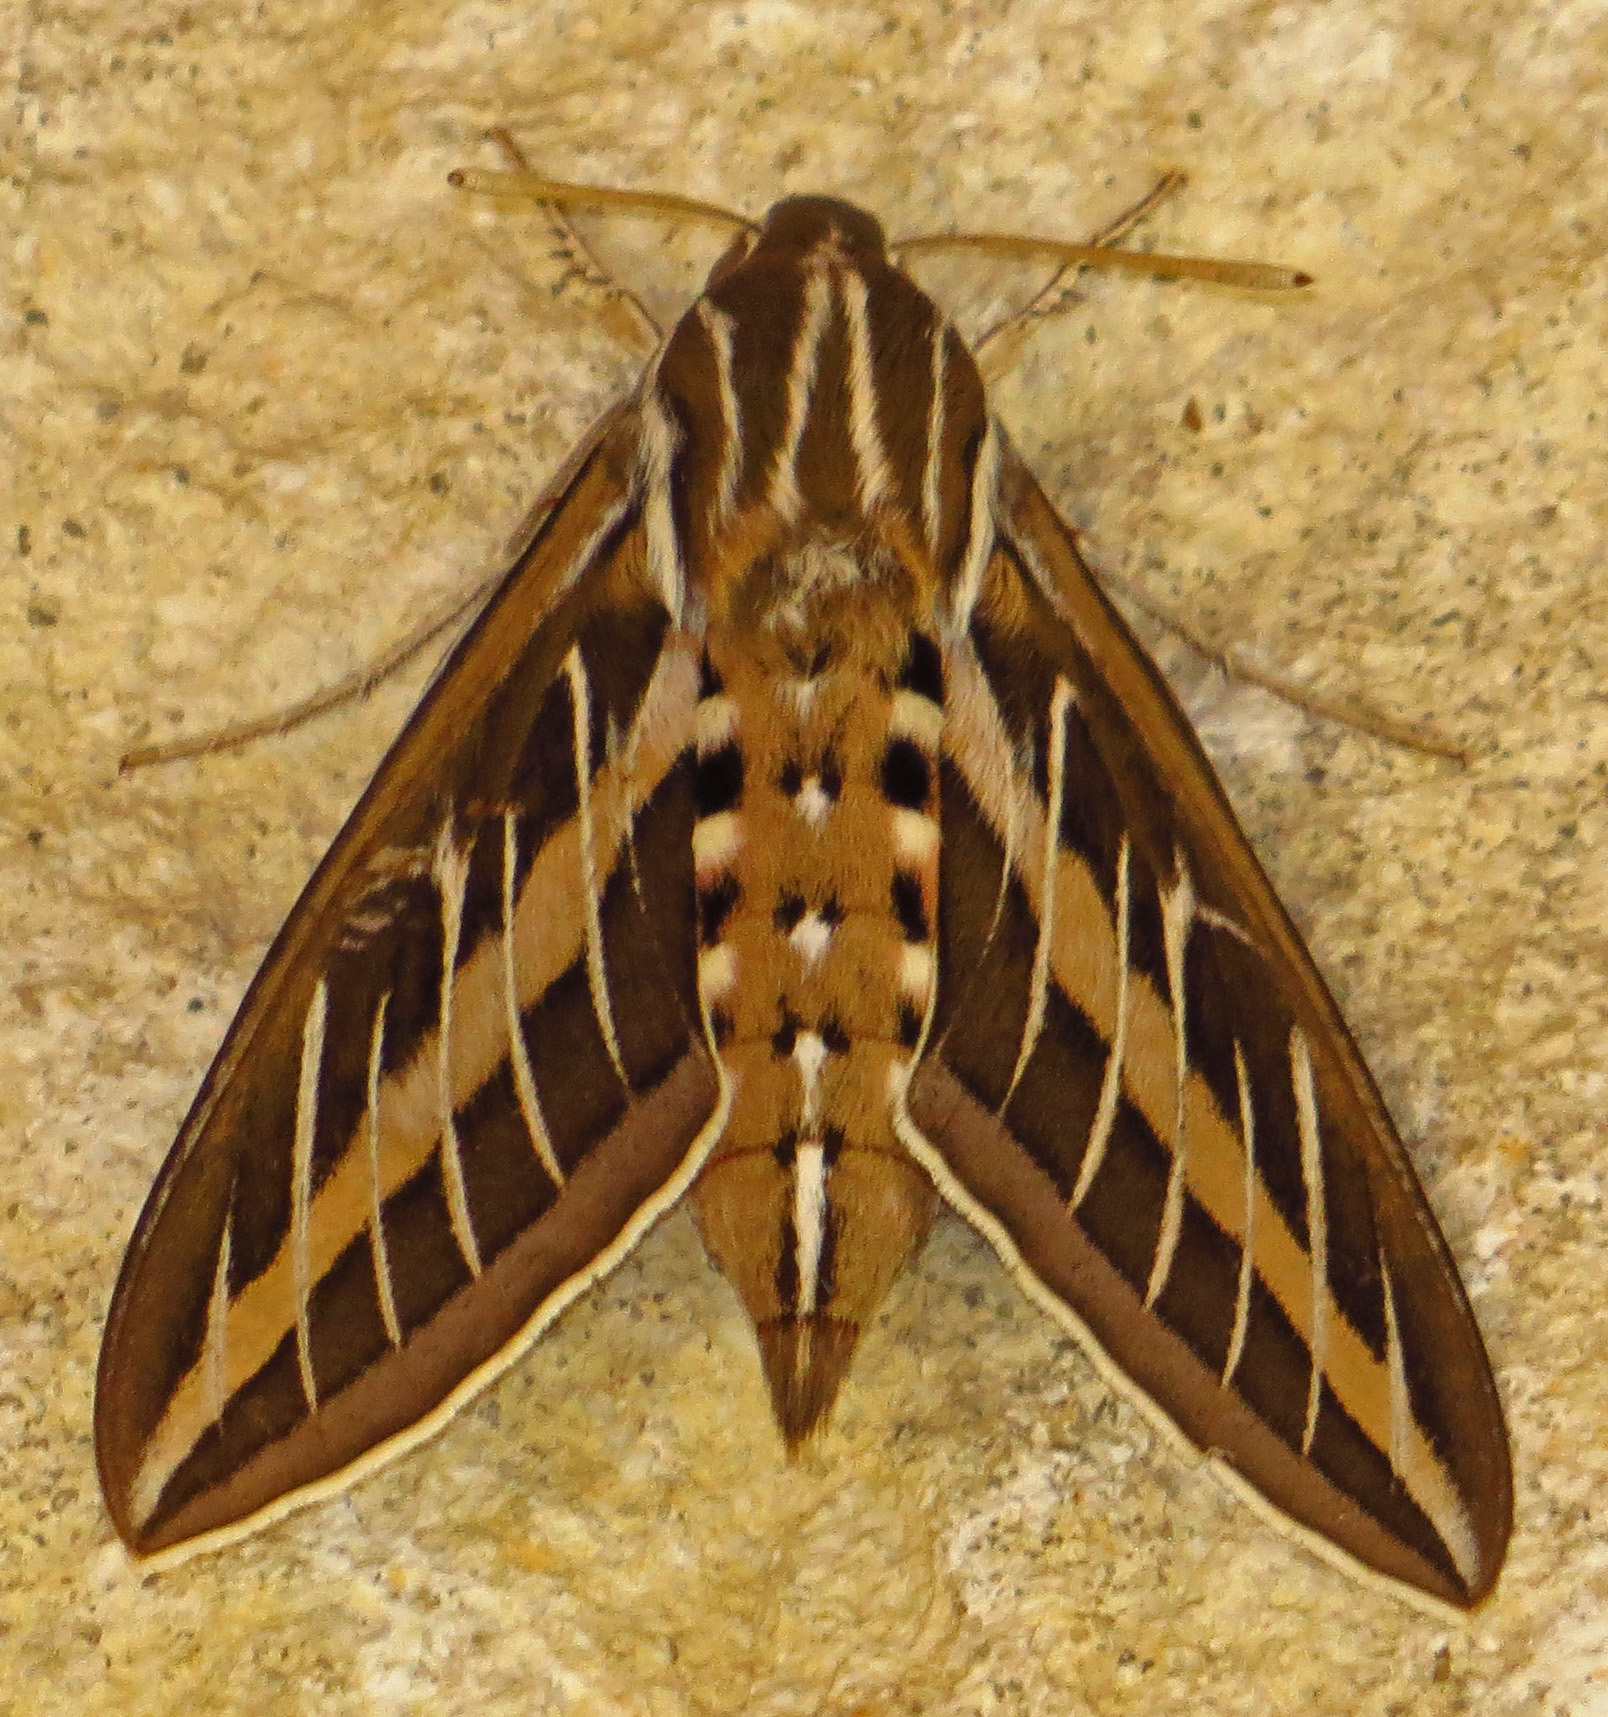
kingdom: Animalia
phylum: Arthropoda
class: Insecta
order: Lepidoptera
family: Sphingidae
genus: Hyles
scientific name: Hyles lineata
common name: White-lined sphinx
